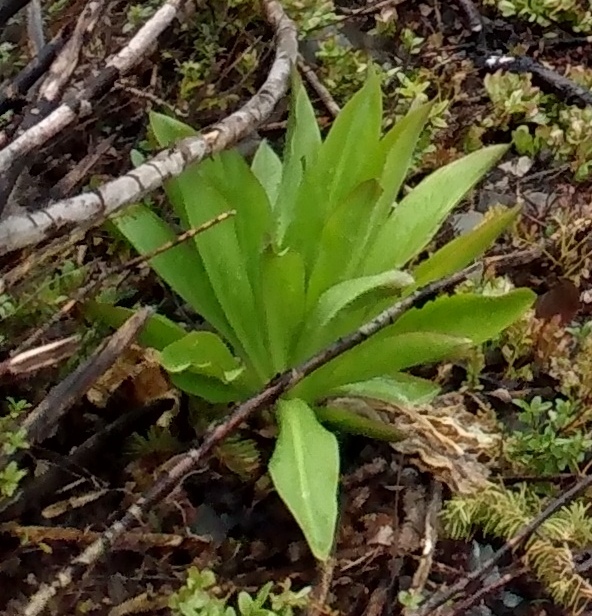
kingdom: Plantae
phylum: Tracheophyta
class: Magnoliopsida
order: Gentianales
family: Gentianaceae
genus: Frasera
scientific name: Frasera speciosa
